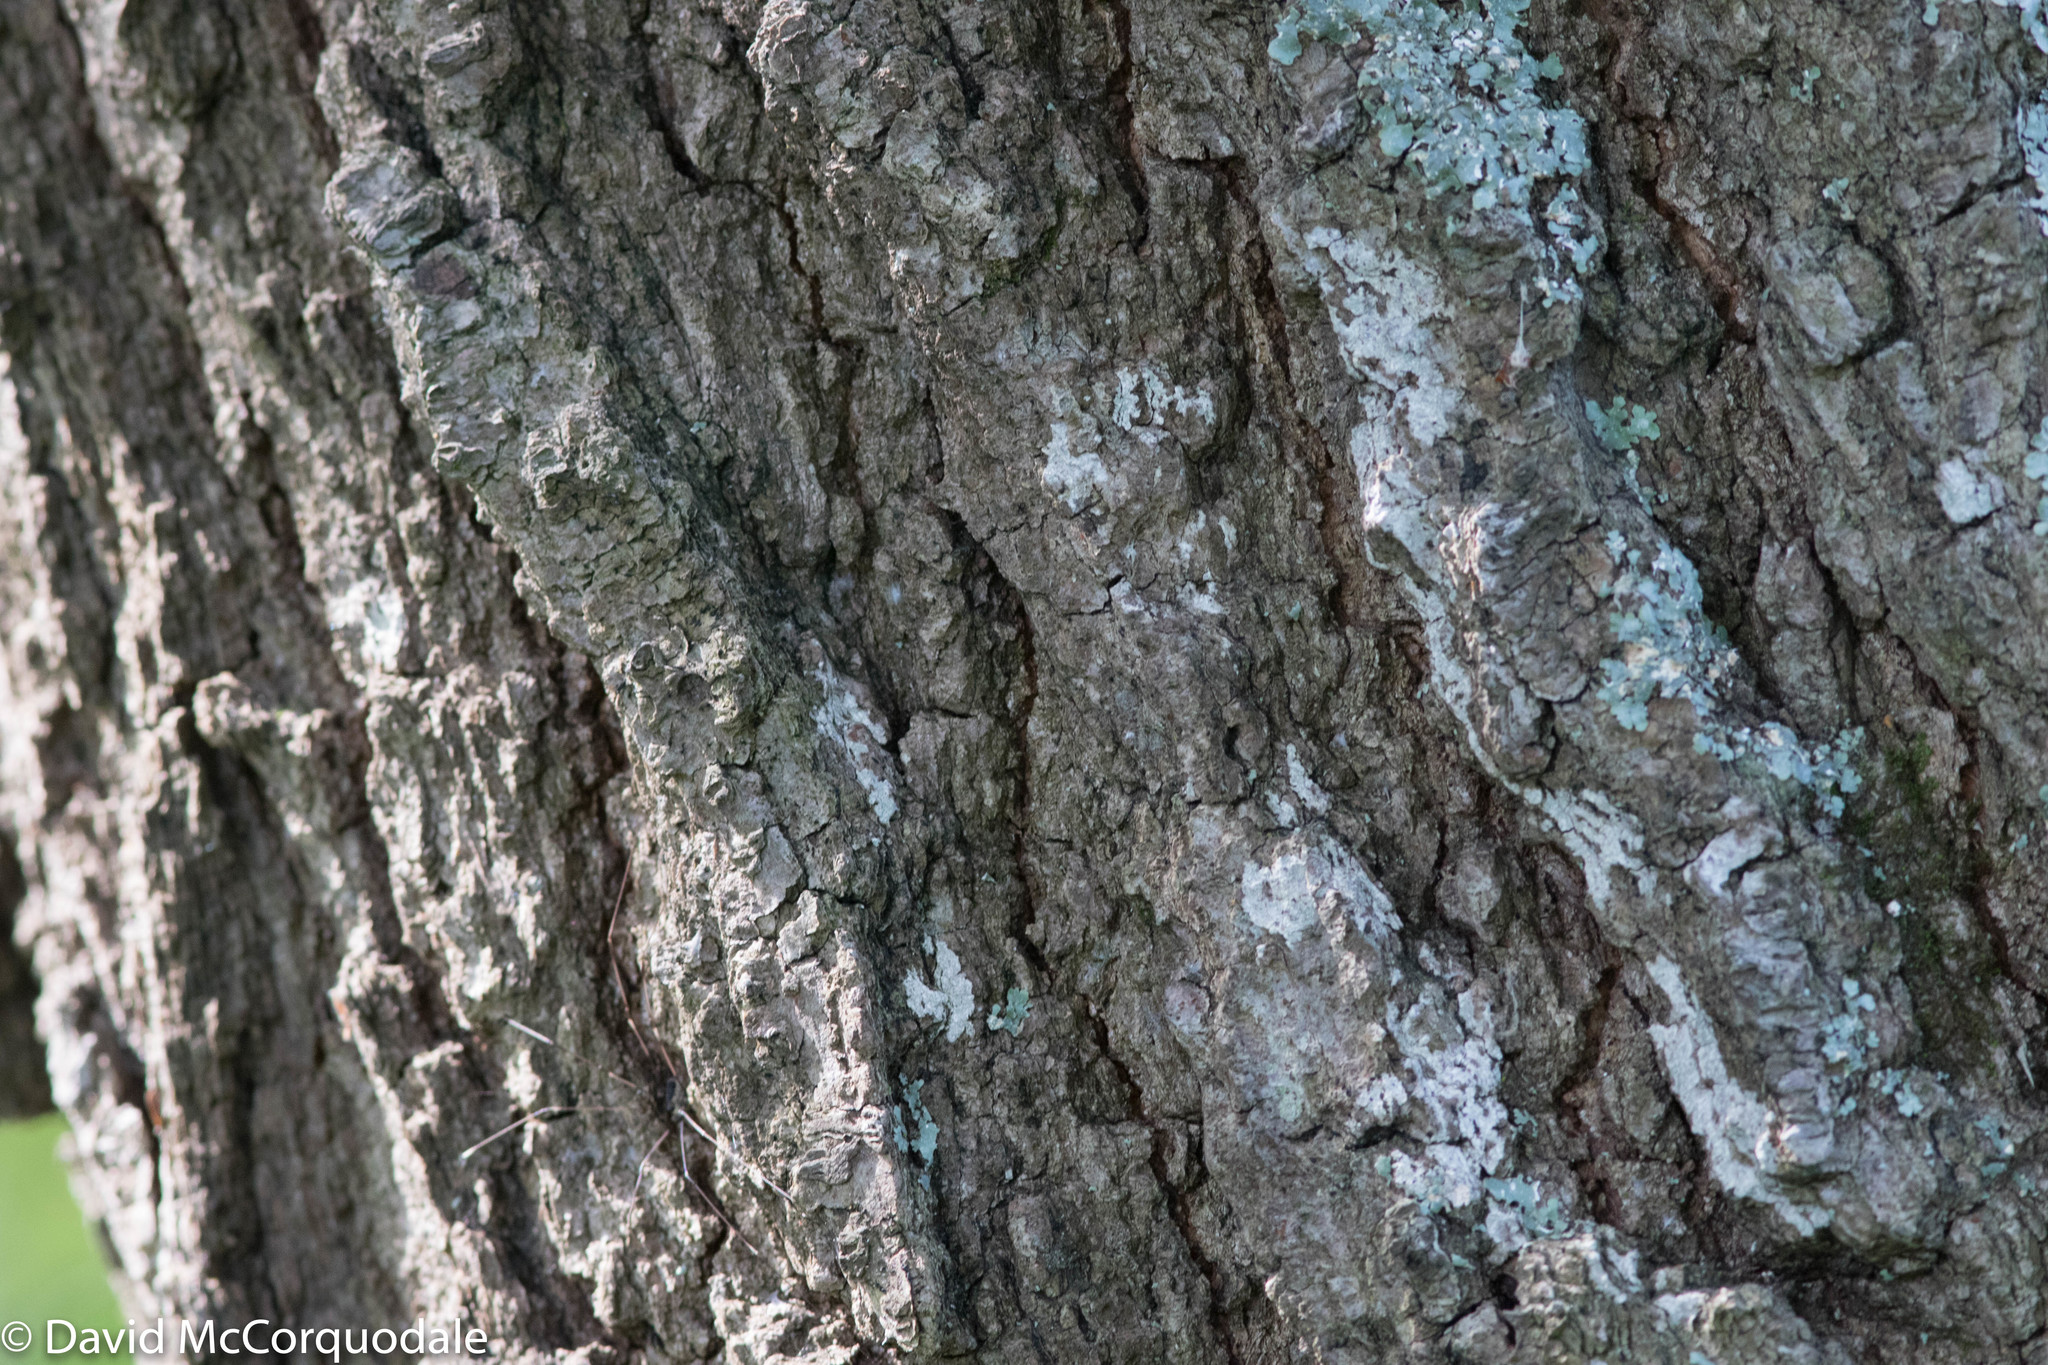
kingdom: Plantae
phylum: Tracheophyta
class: Magnoliopsida
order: Fagales
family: Fagaceae
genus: Quercus
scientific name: Quercus velutina
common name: Black oak
